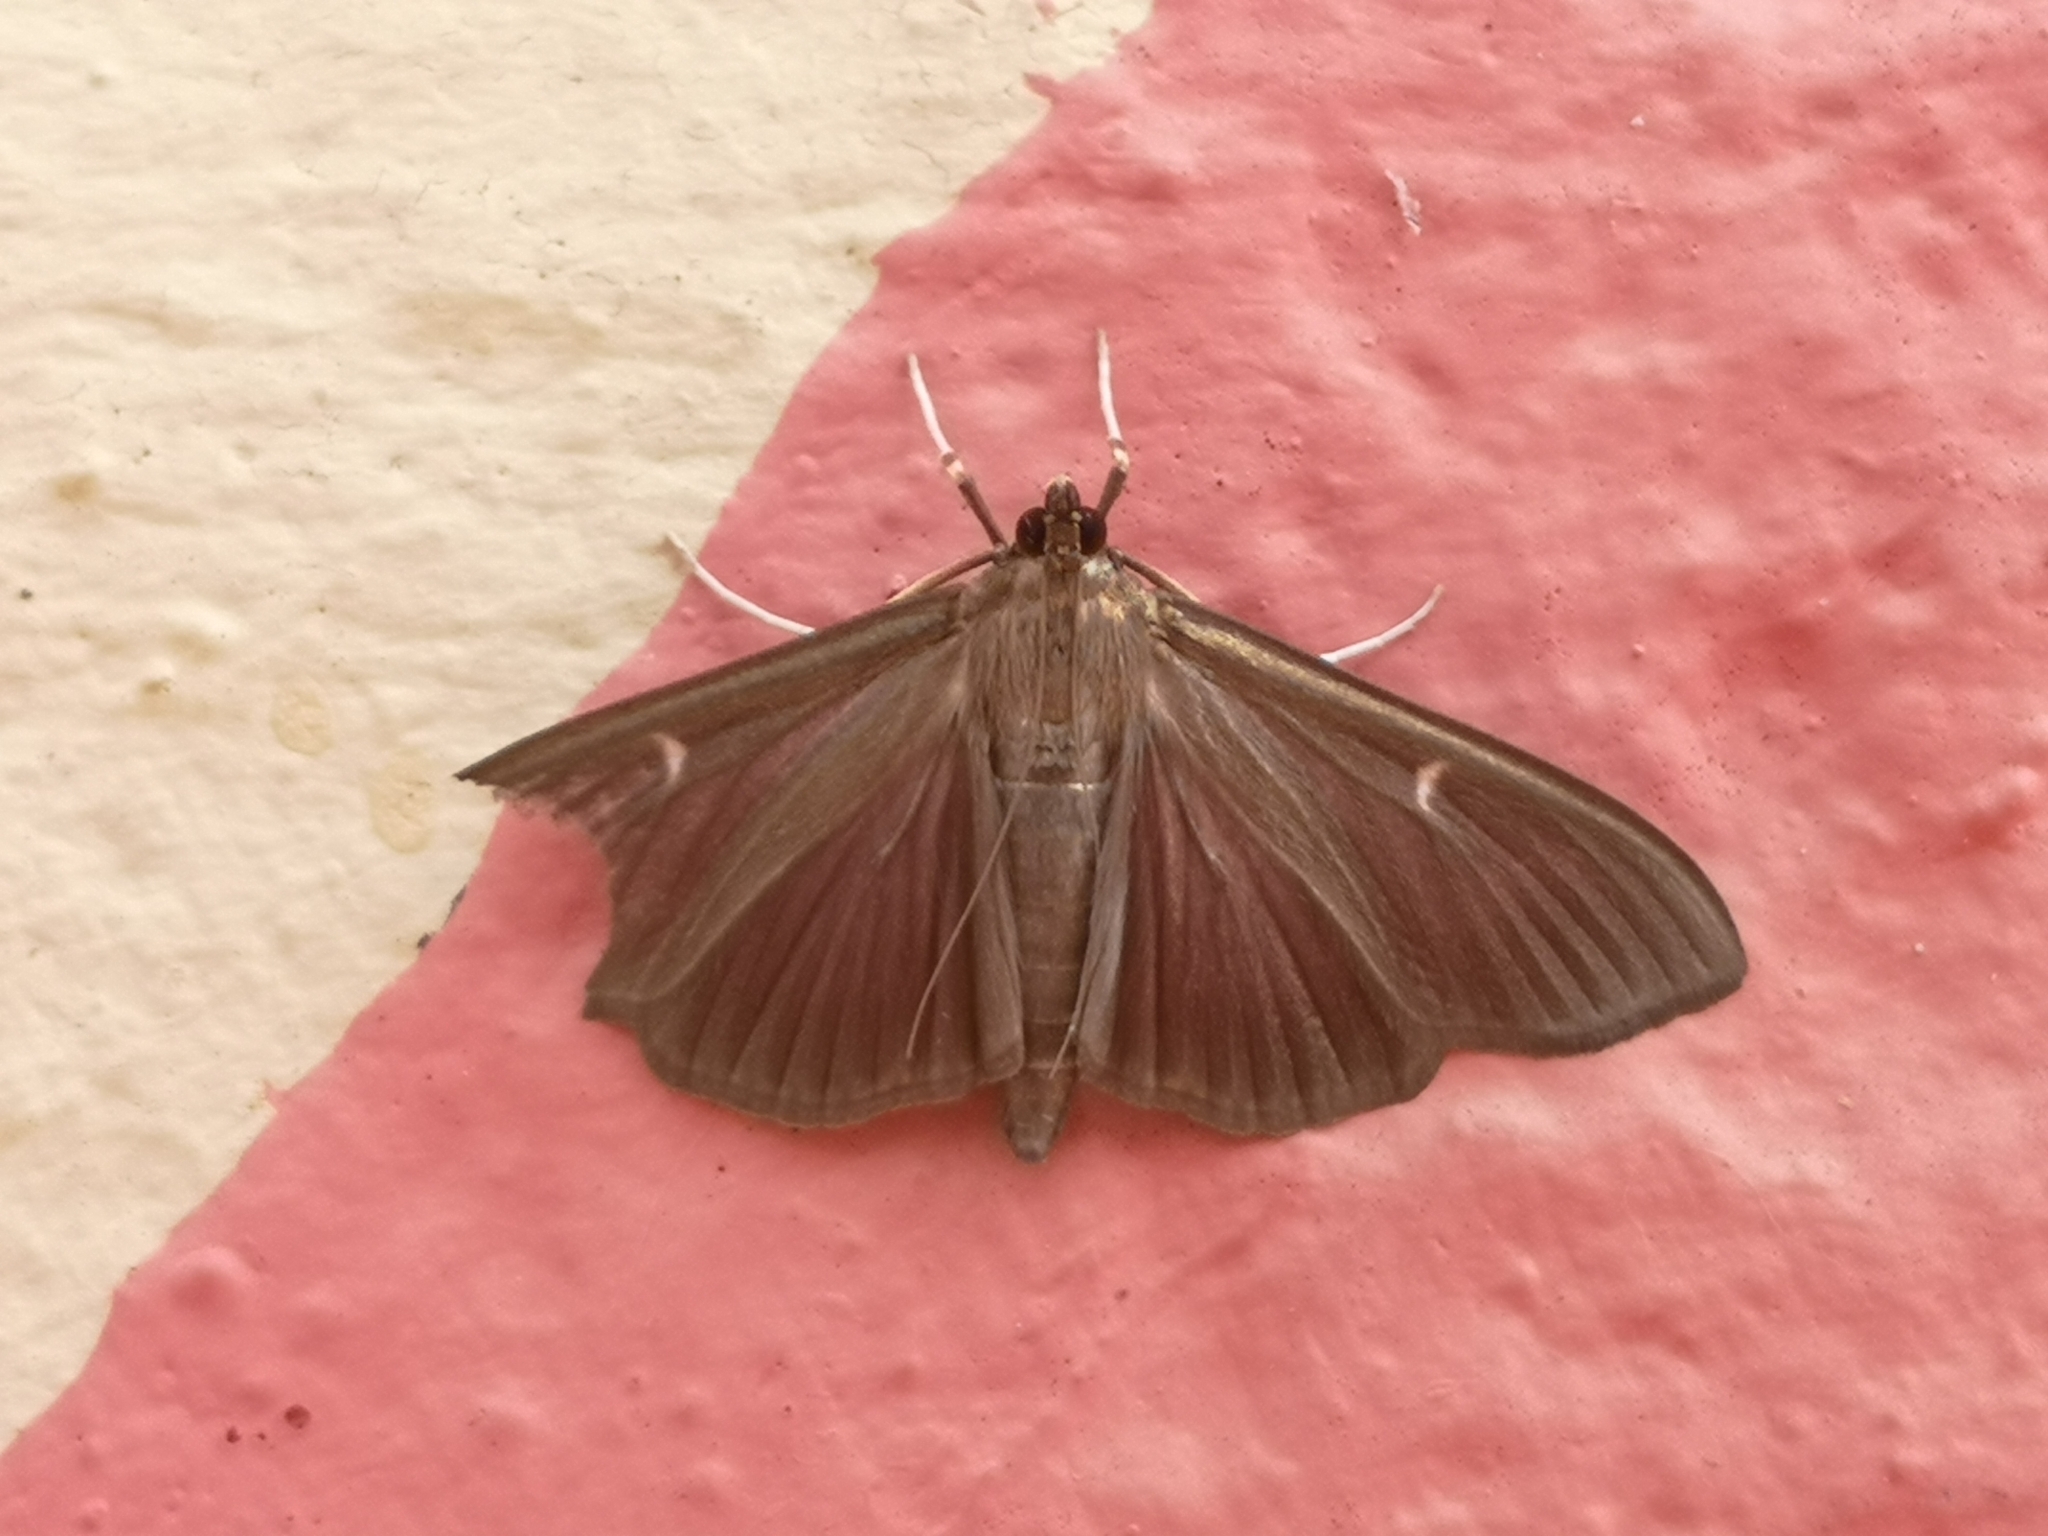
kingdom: Animalia
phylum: Arthropoda
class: Insecta
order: Lepidoptera
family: Crambidae
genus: Cydalima
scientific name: Cydalima perspectalis
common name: Box tree moth
